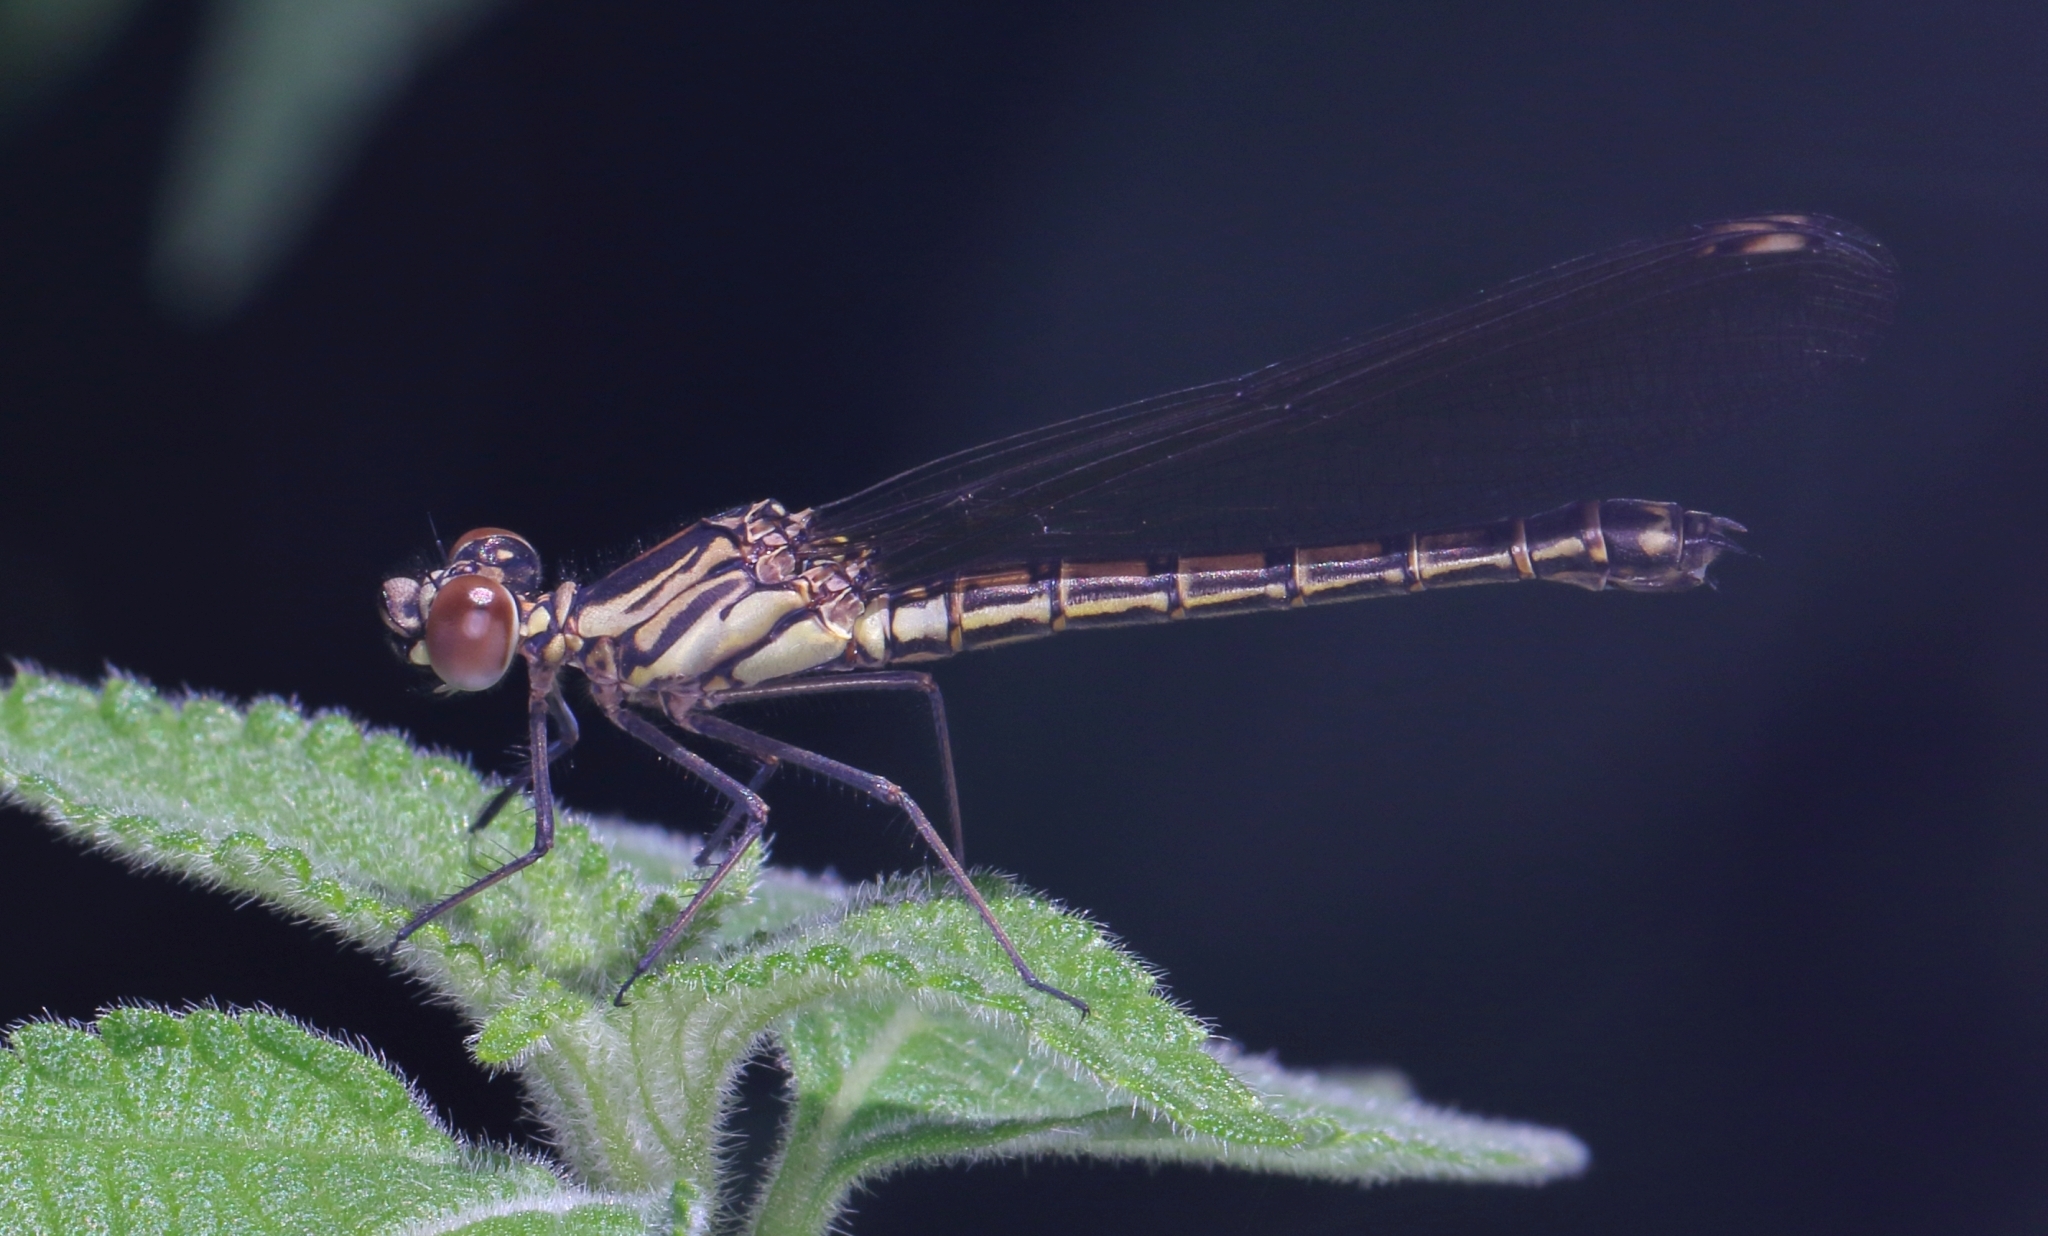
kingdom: Animalia
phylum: Arthropoda
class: Insecta
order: Odonata
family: Chlorocyphidae
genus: Platycypha
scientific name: Platycypha caligata
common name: Dancing jewel
